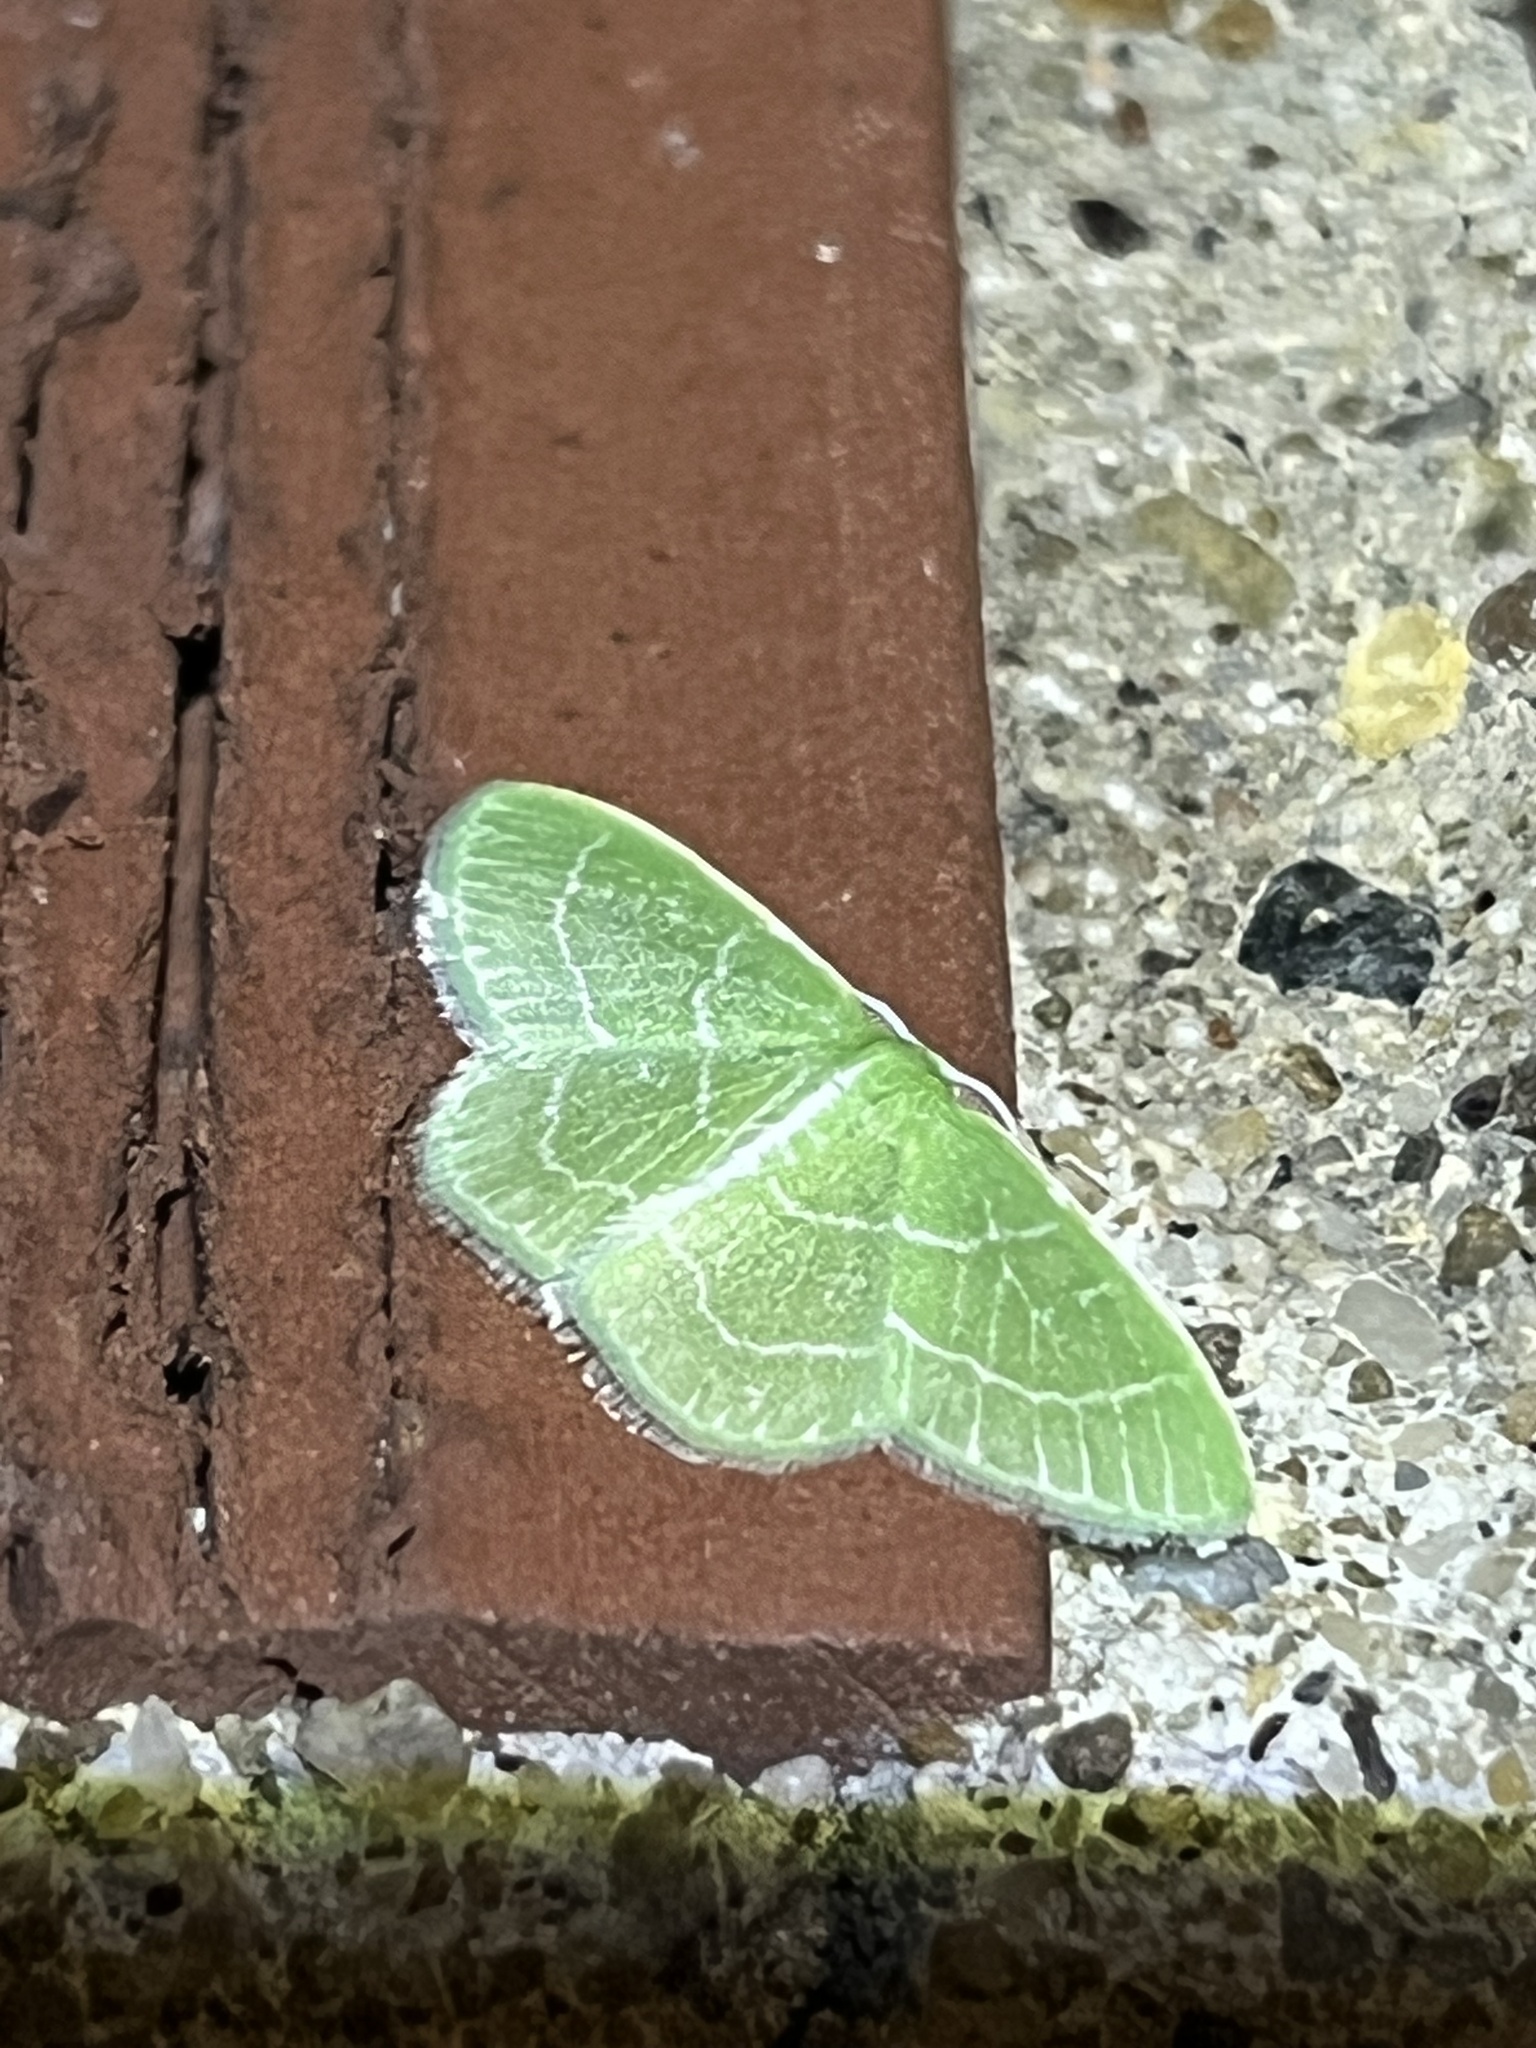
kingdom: Animalia
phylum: Arthropoda
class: Insecta
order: Lepidoptera
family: Geometridae
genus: Synchlora
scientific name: Synchlora aerata
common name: Wavy-lined emerald
